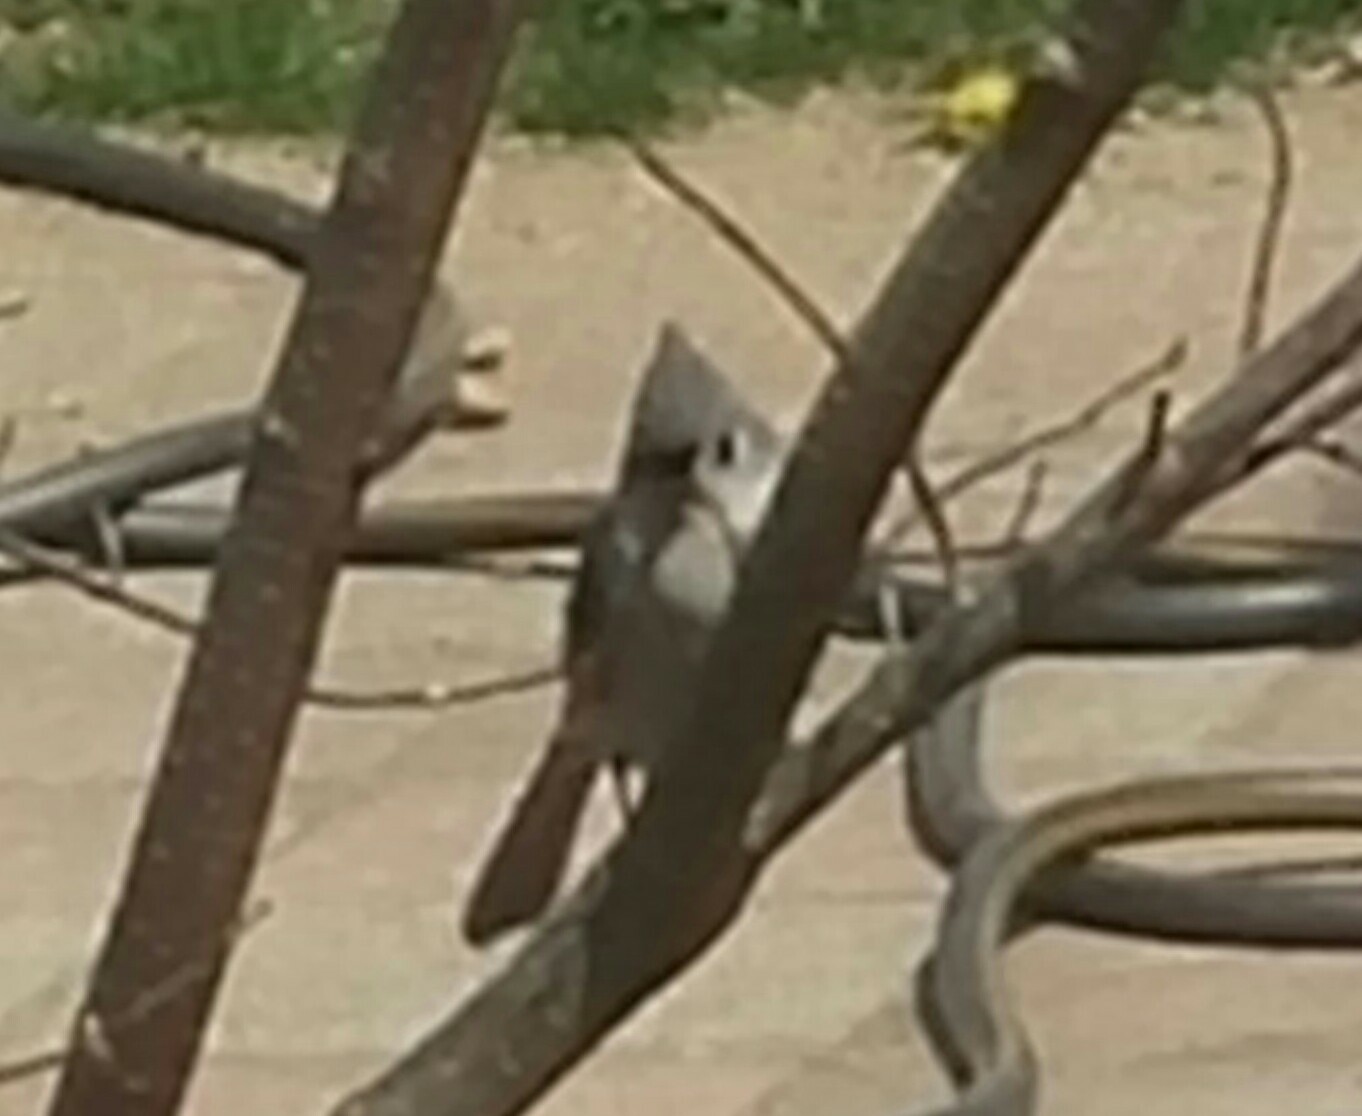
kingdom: Animalia
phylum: Chordata
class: Aves
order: Passeriformes
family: Paridae
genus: Baeolophus
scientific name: Baeolophus bicolor
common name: Tufted titmouse
